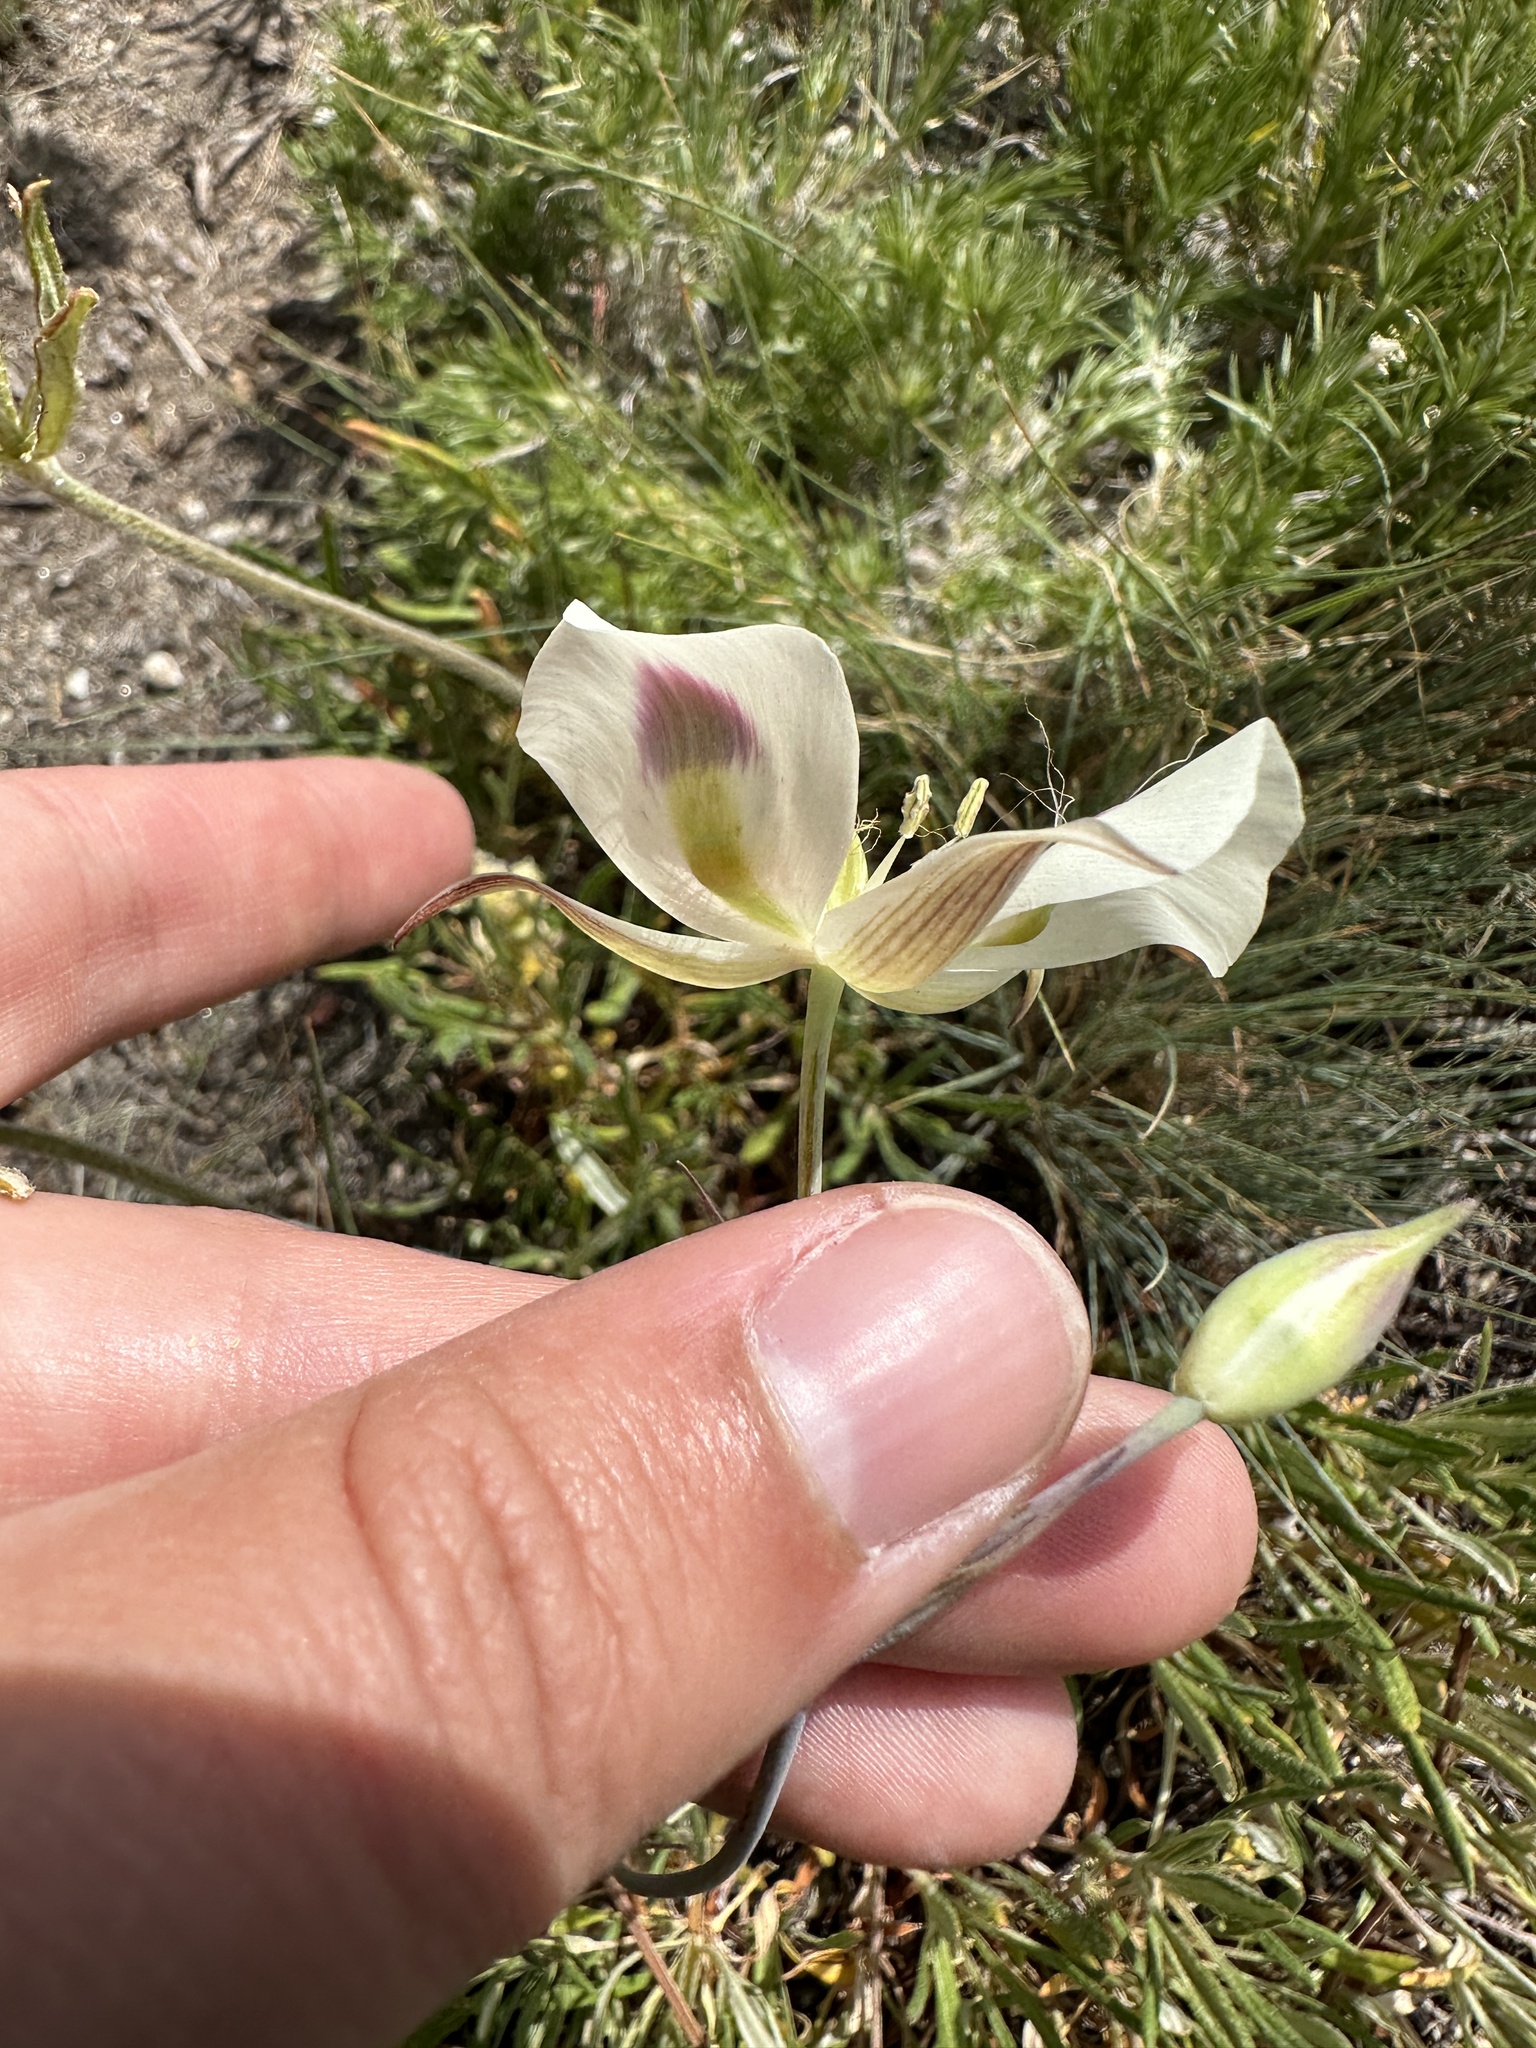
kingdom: Plantae
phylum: Tracheophyta
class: Liliopsida
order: Liliales
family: Liliaceae
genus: Calochortus
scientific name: Calochortus eurycarpus
